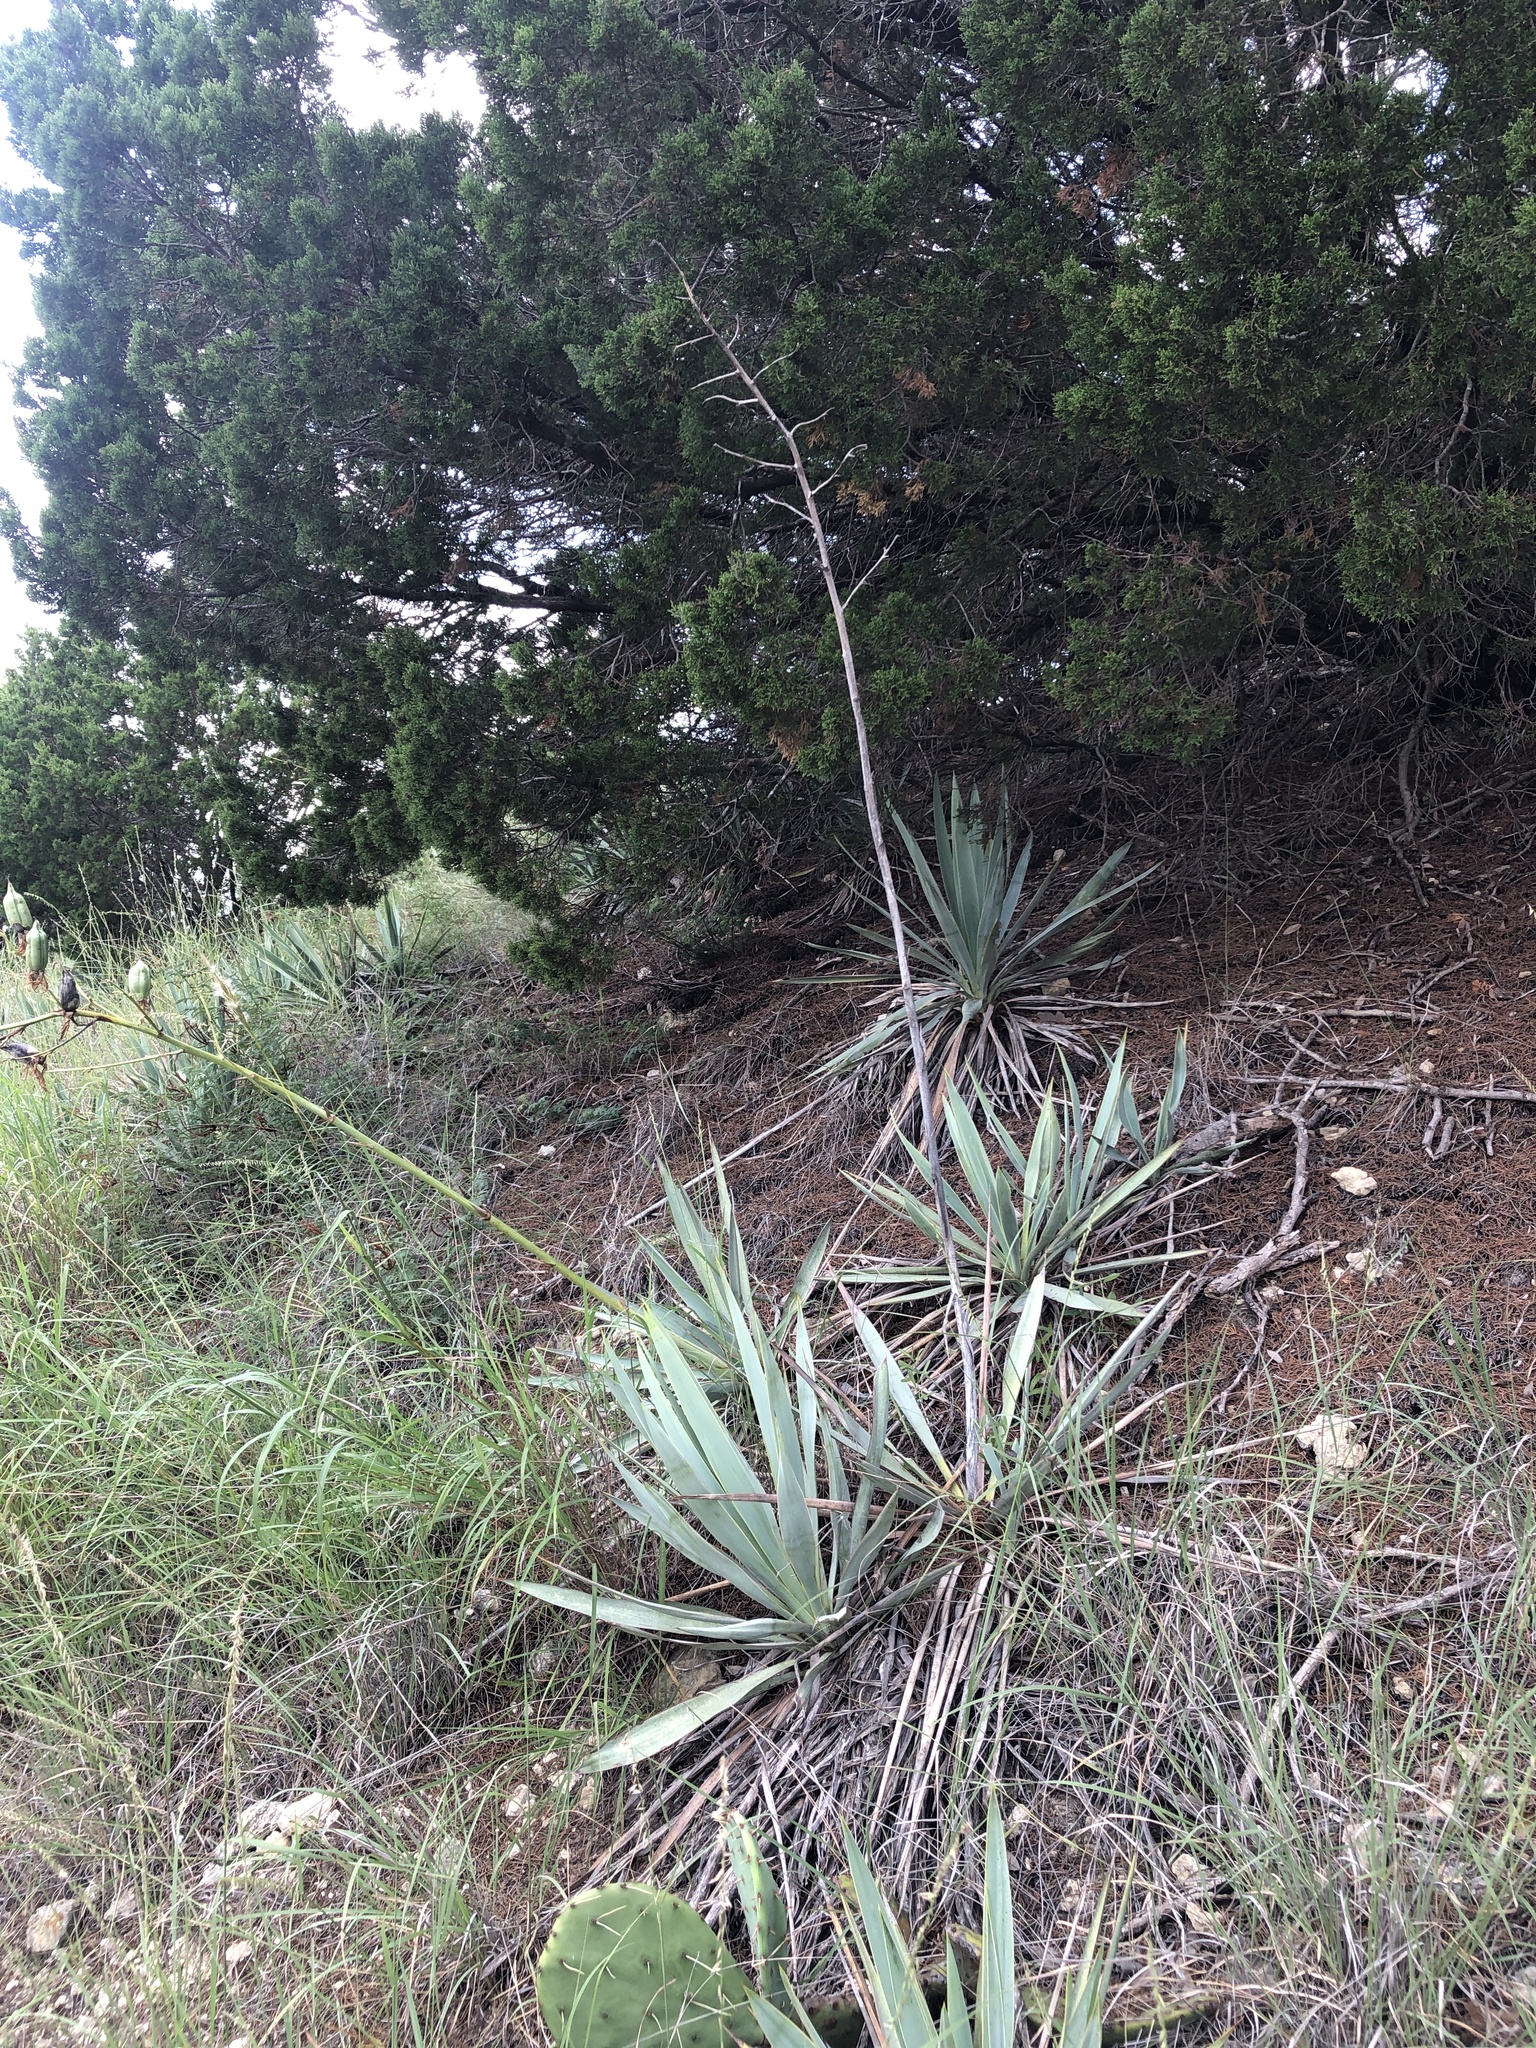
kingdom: Plantae
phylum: Tracheophyta
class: Liliopsida
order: Asparagales
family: Asparagaceae
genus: Yucca
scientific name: Yucca pallida
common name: Pale leaf yucca
